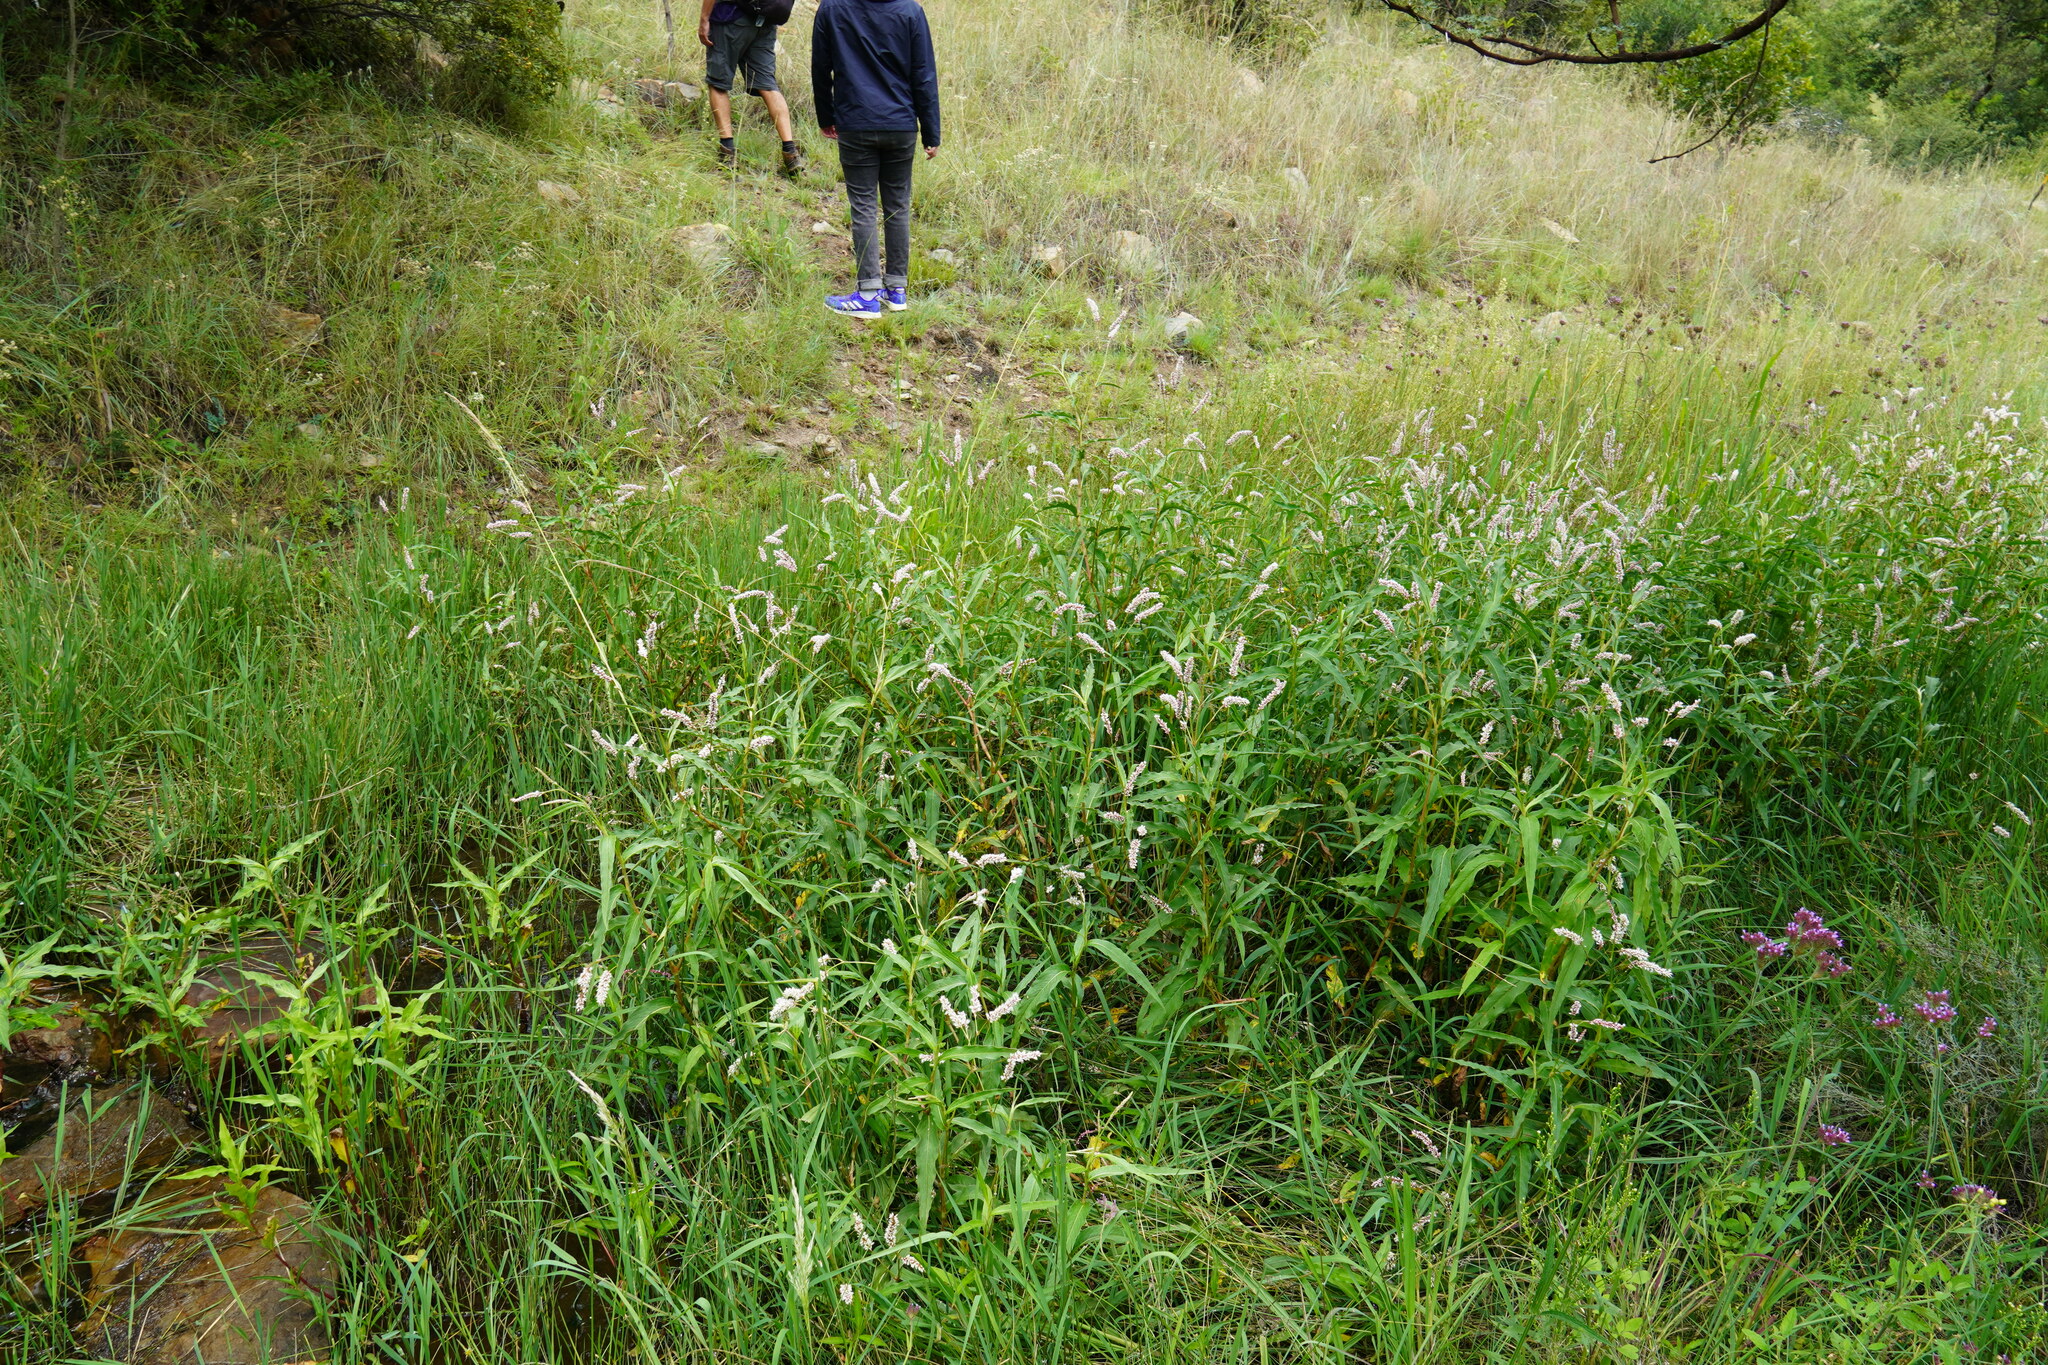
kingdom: Plantae
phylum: Tracheophyta
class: Magnoliopsida
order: Caryophyllales
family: Polygonaceae
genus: Persicaria
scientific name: Persicaria madagascariensis
